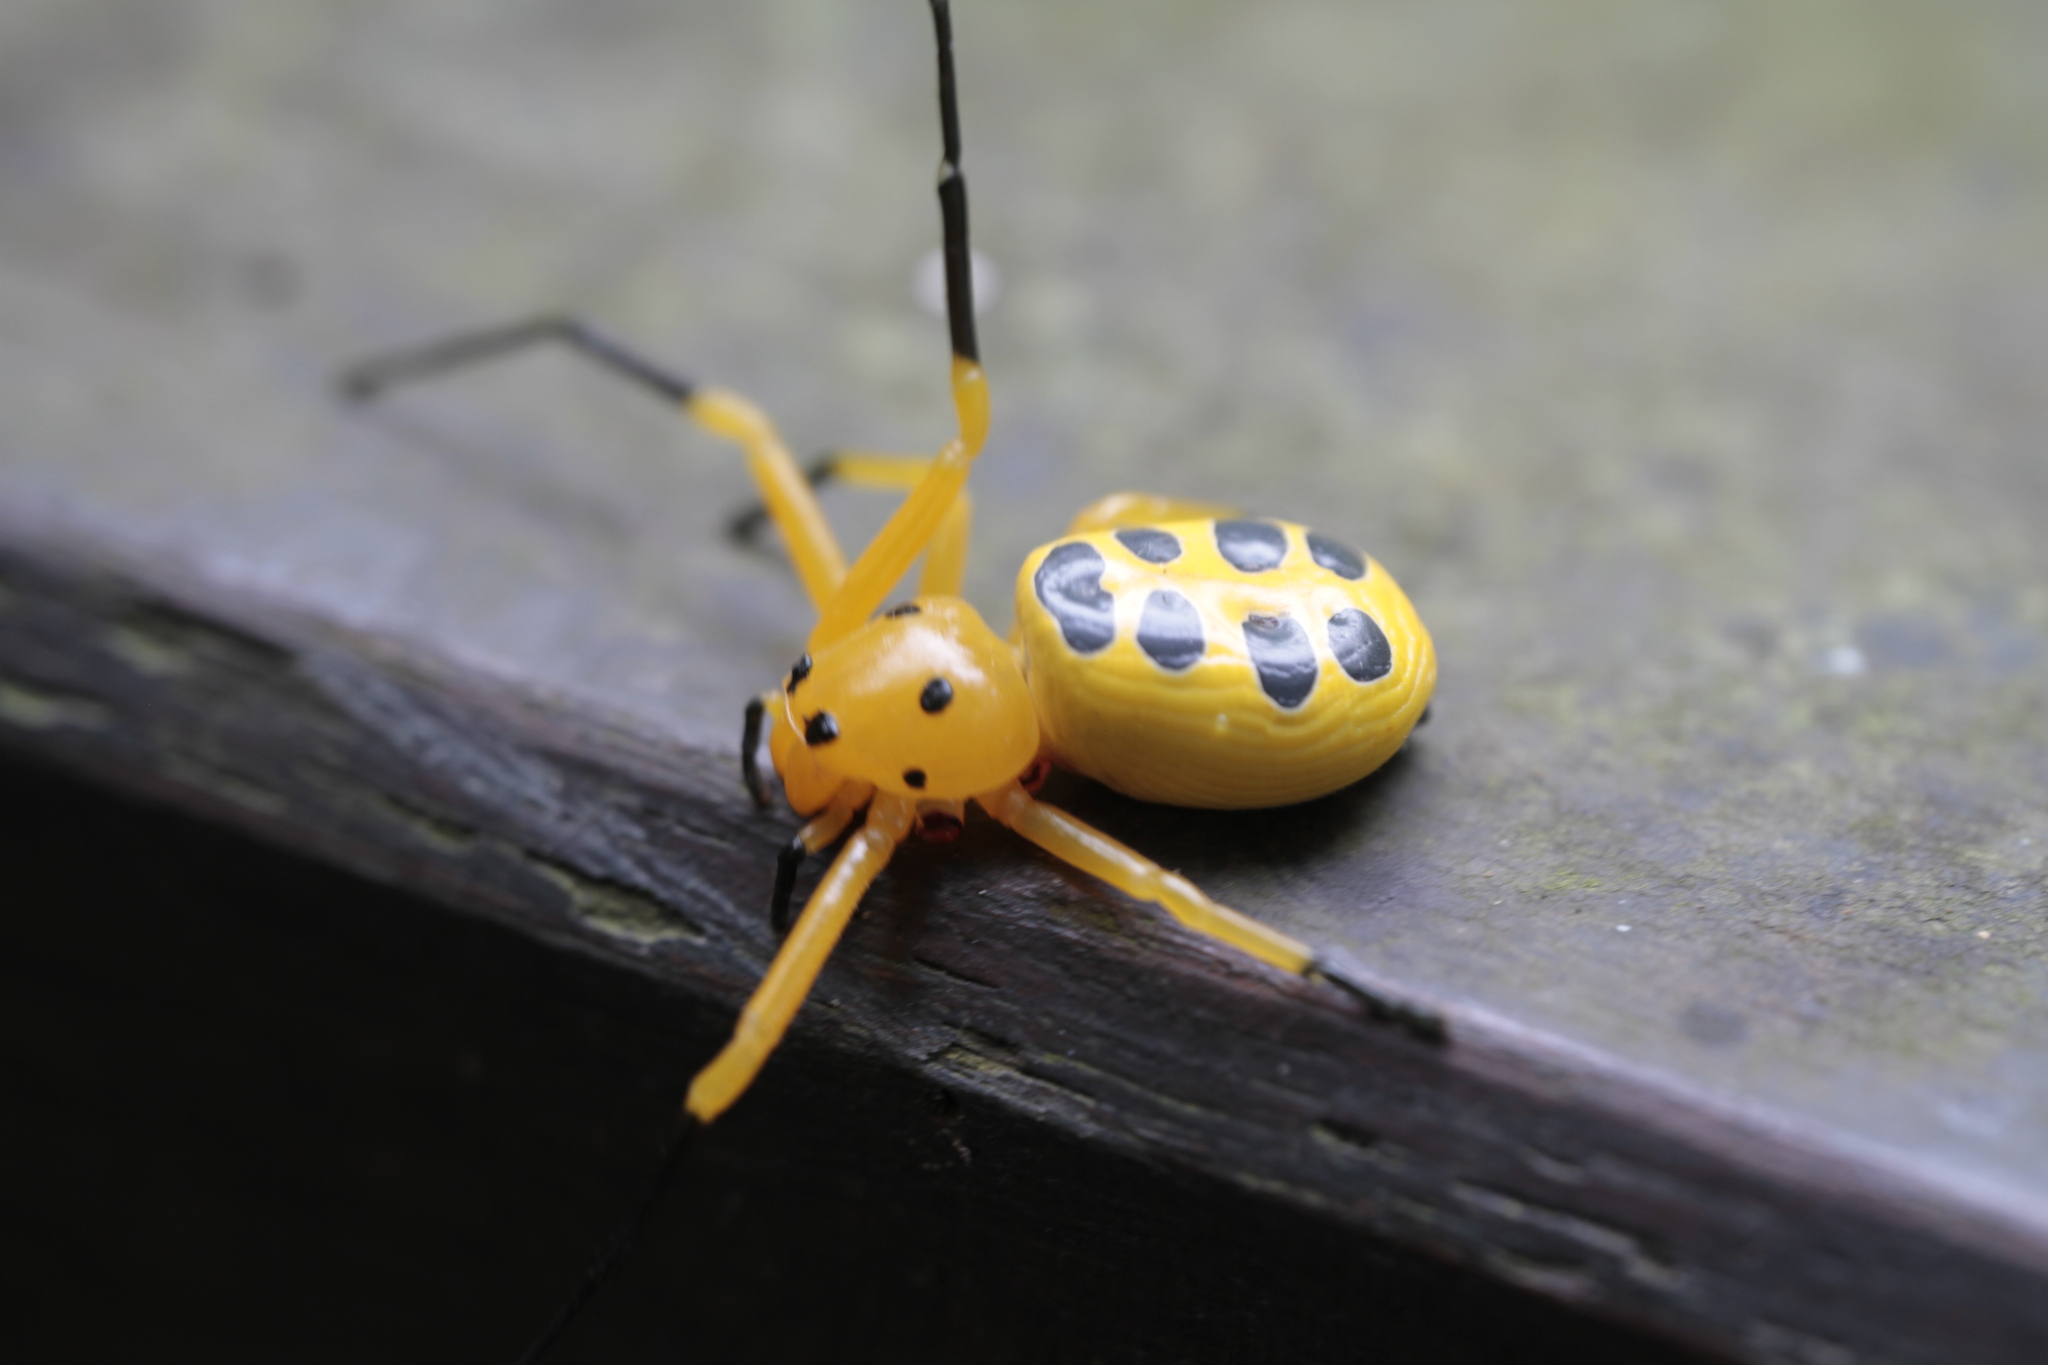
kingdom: Animalia
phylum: Arthropoda
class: Arachnida
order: Araneae
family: Thomisidae
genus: Platythomisus
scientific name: Platythomisus octomaculatus
